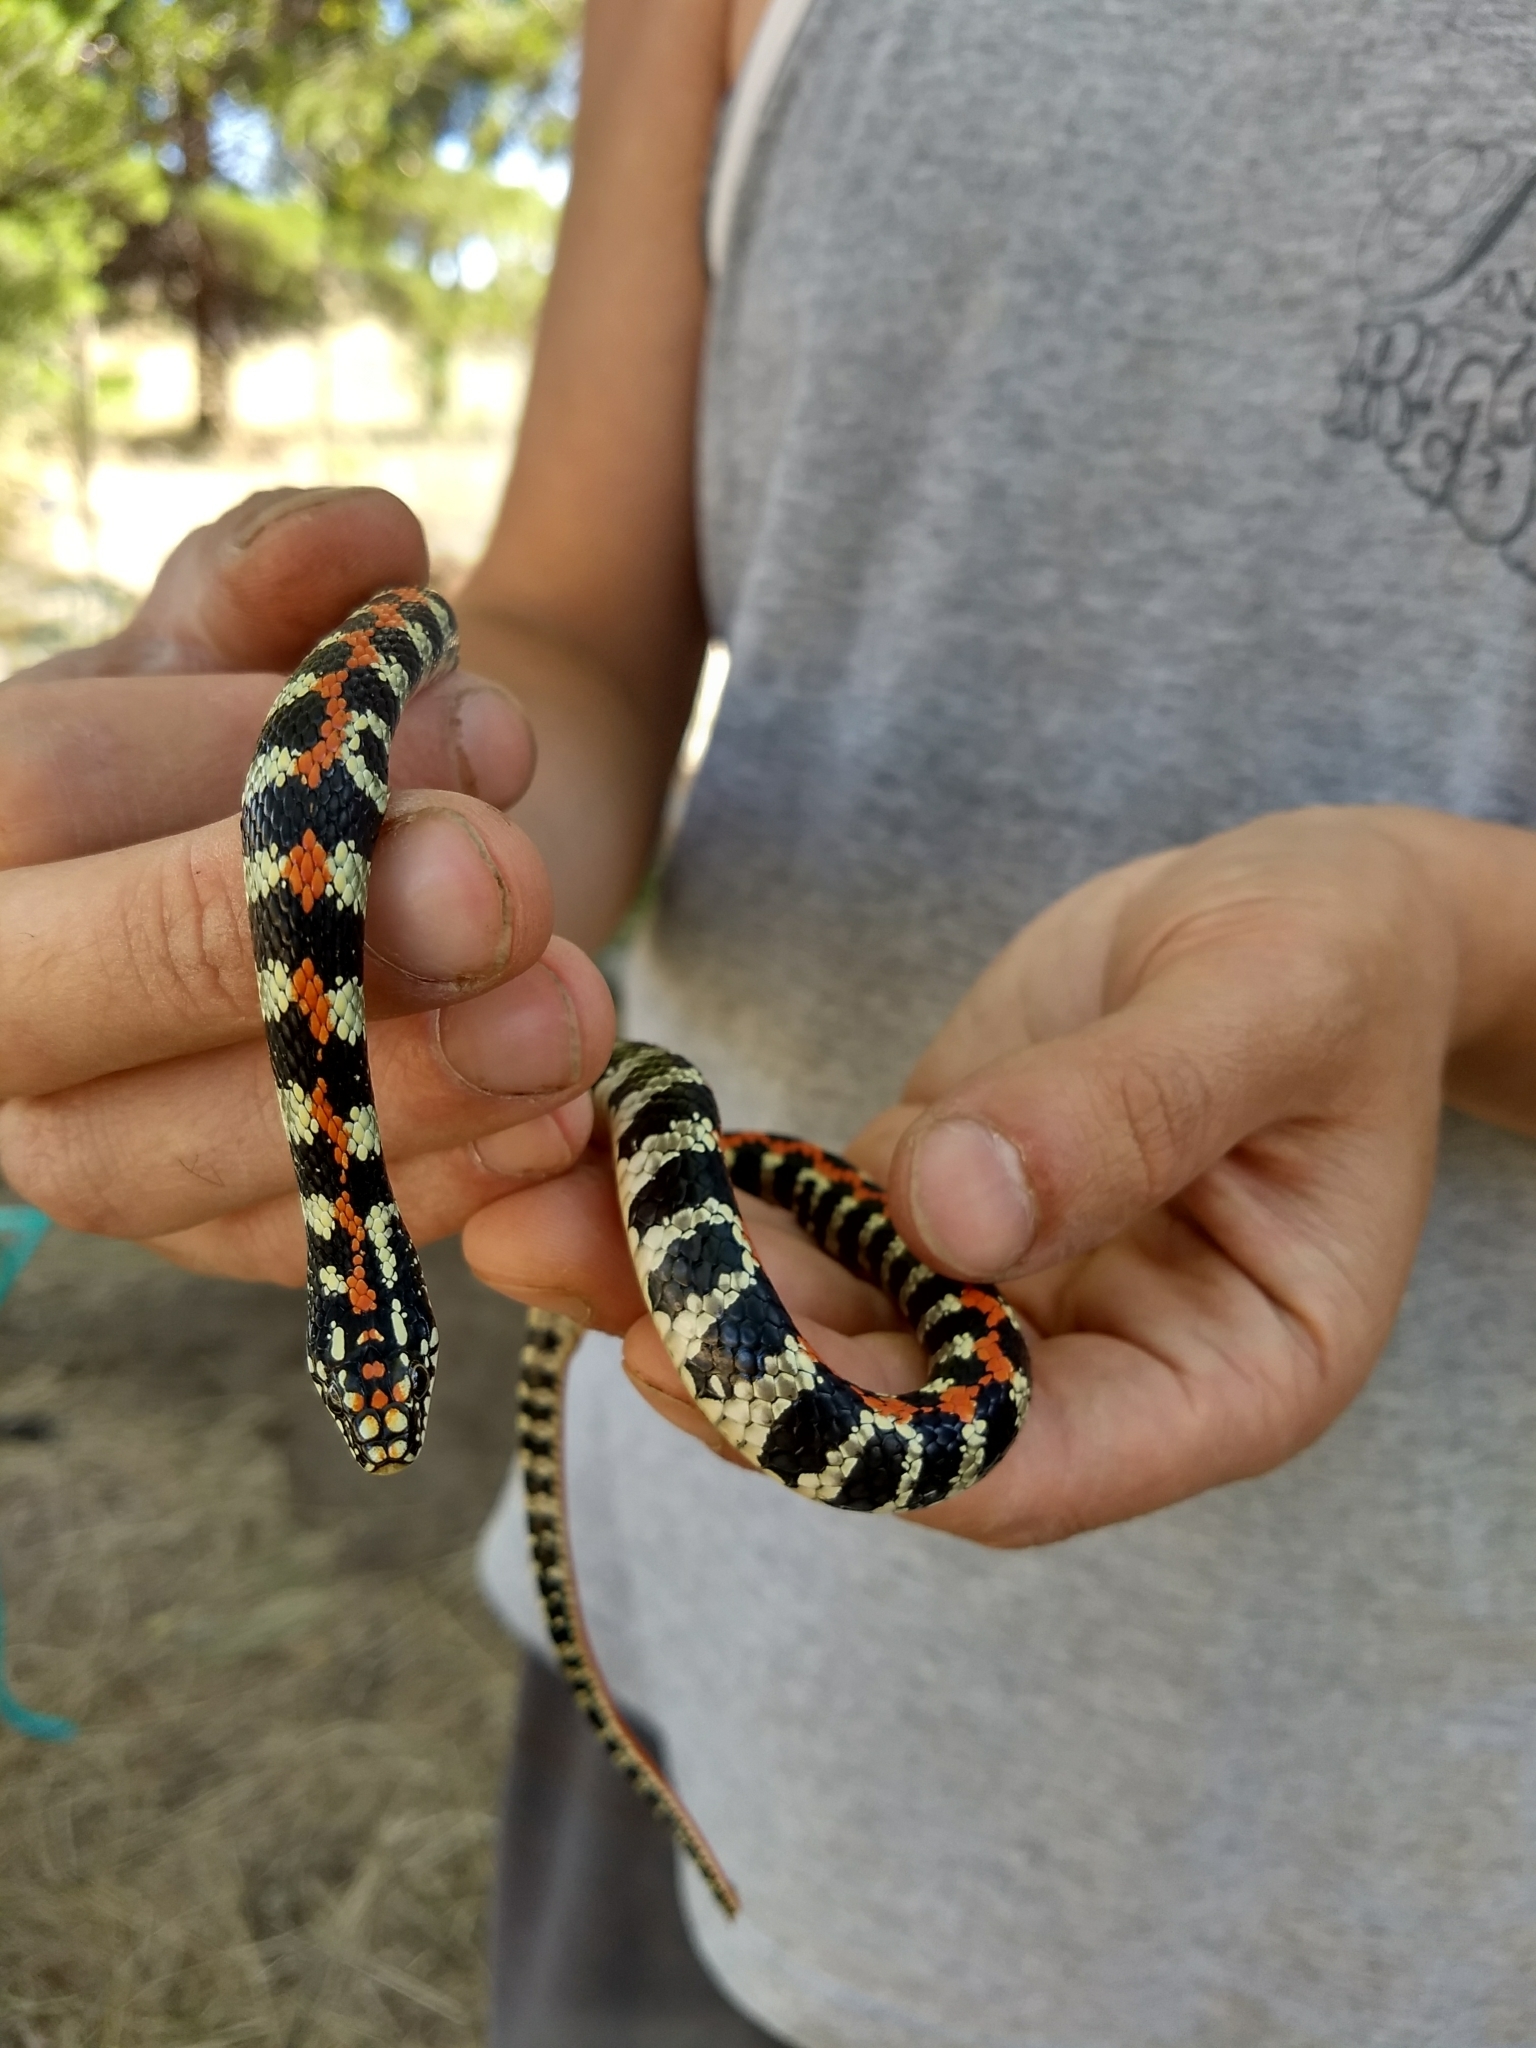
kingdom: Animalia
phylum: Chordata
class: Squamata
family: Colubridae
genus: Lygophis
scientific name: Lygophis elegantissimus
